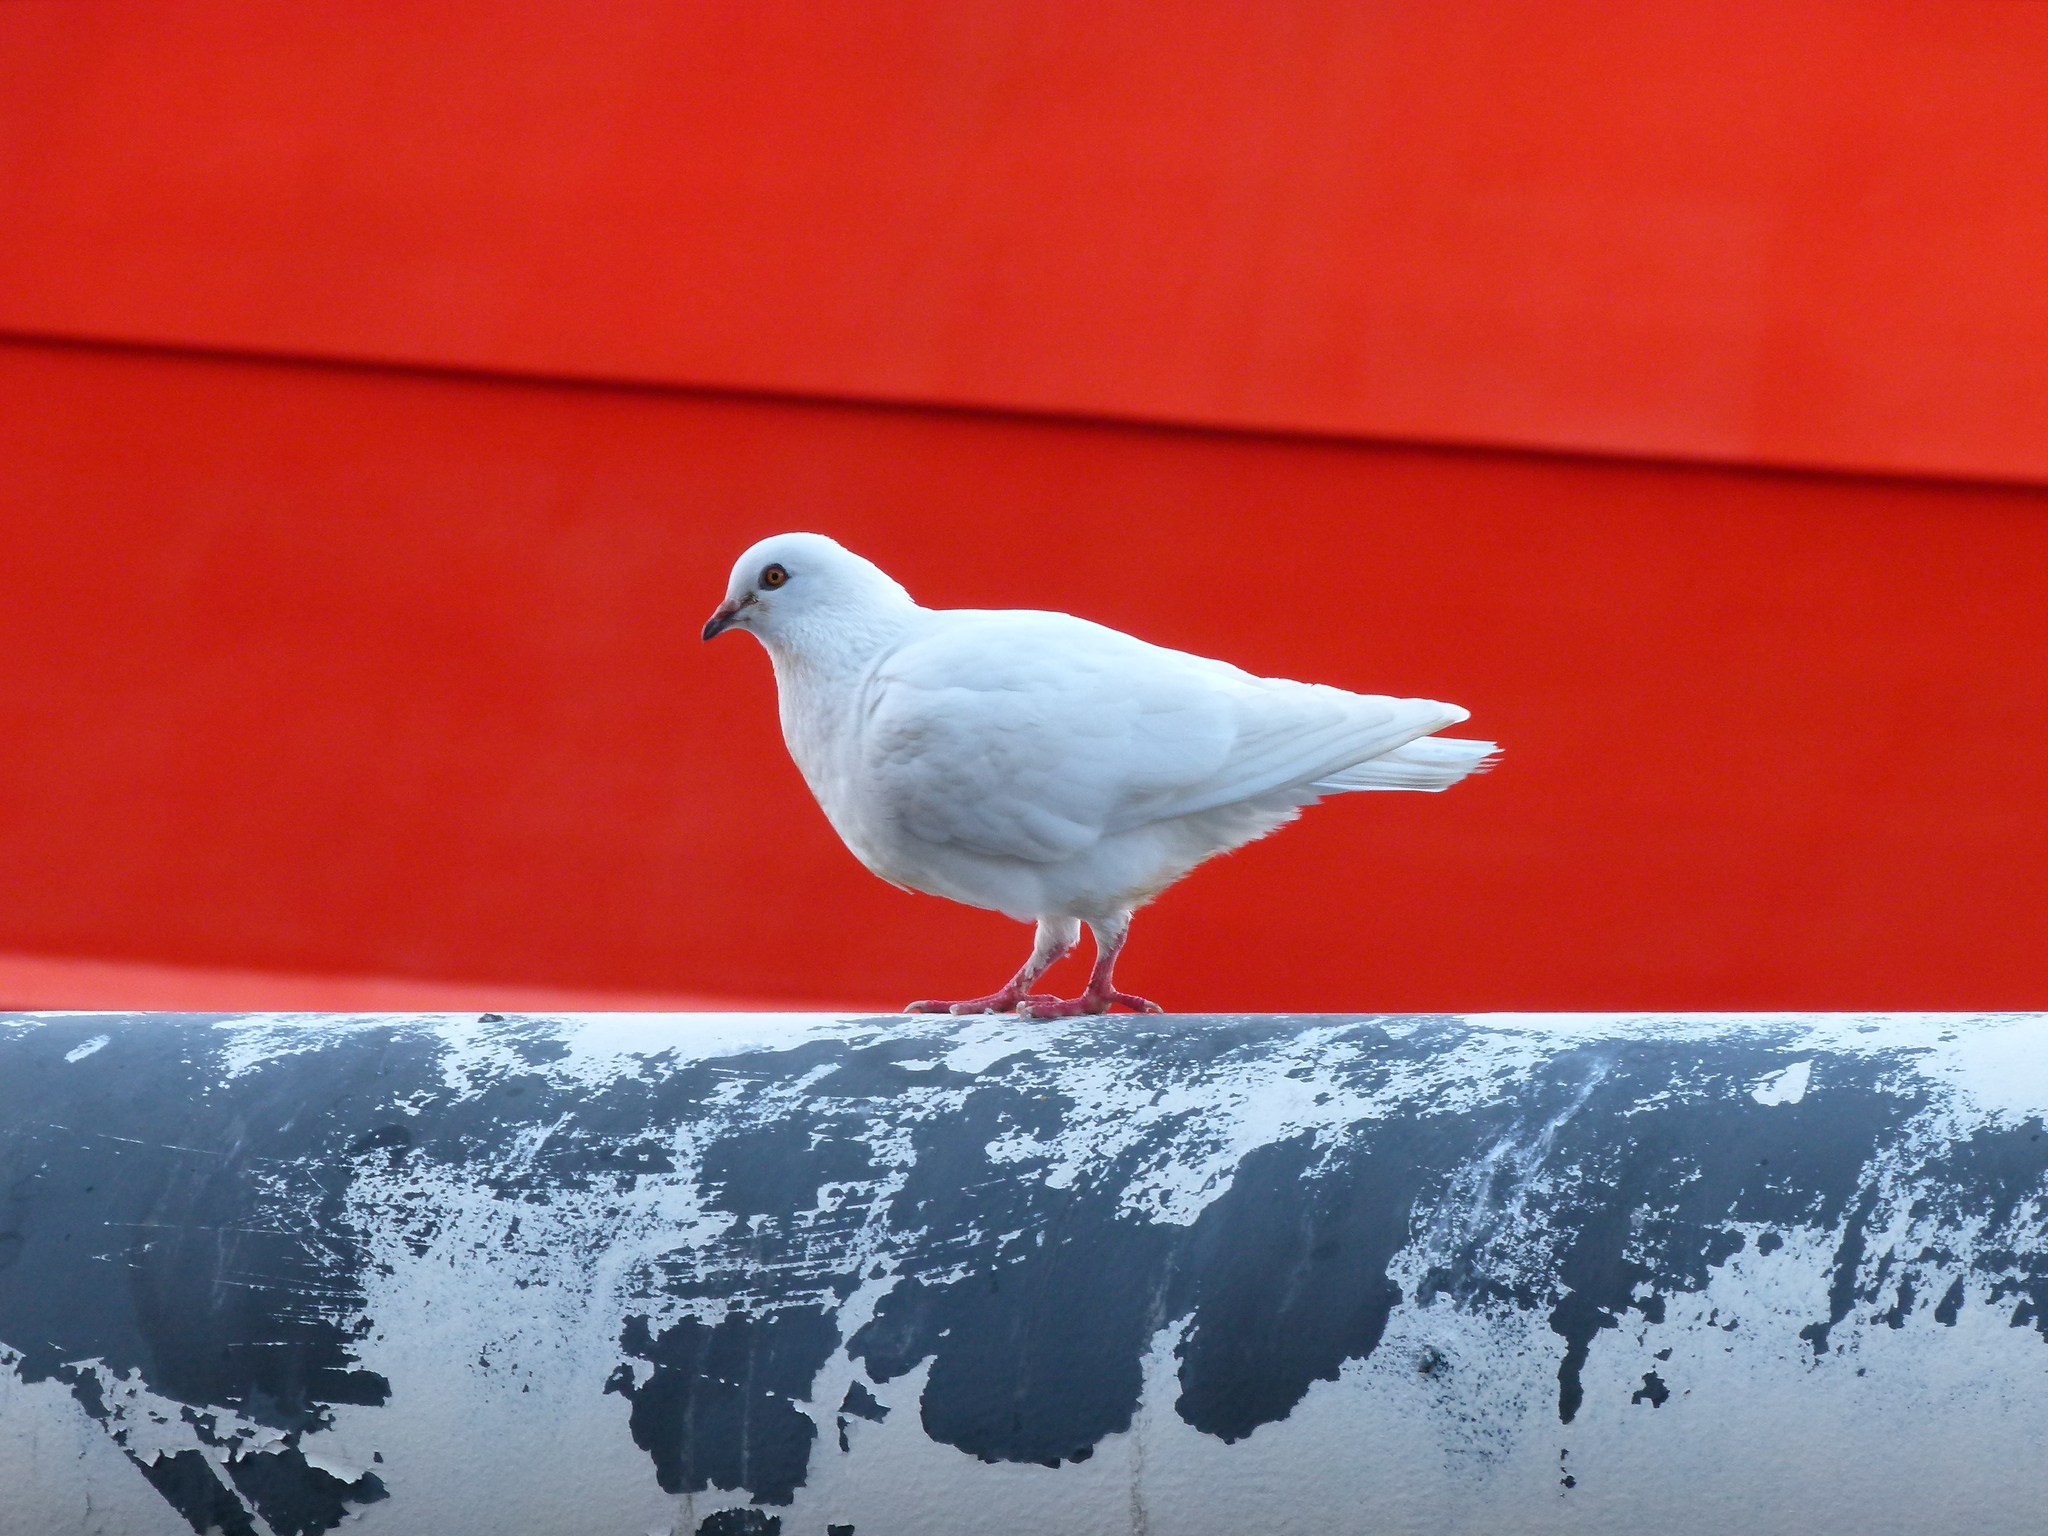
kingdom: Animalia
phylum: Chordata
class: Aves
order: Columbiformes
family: Columbidae
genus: Columba
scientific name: Columba livia
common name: Rock pigeon
